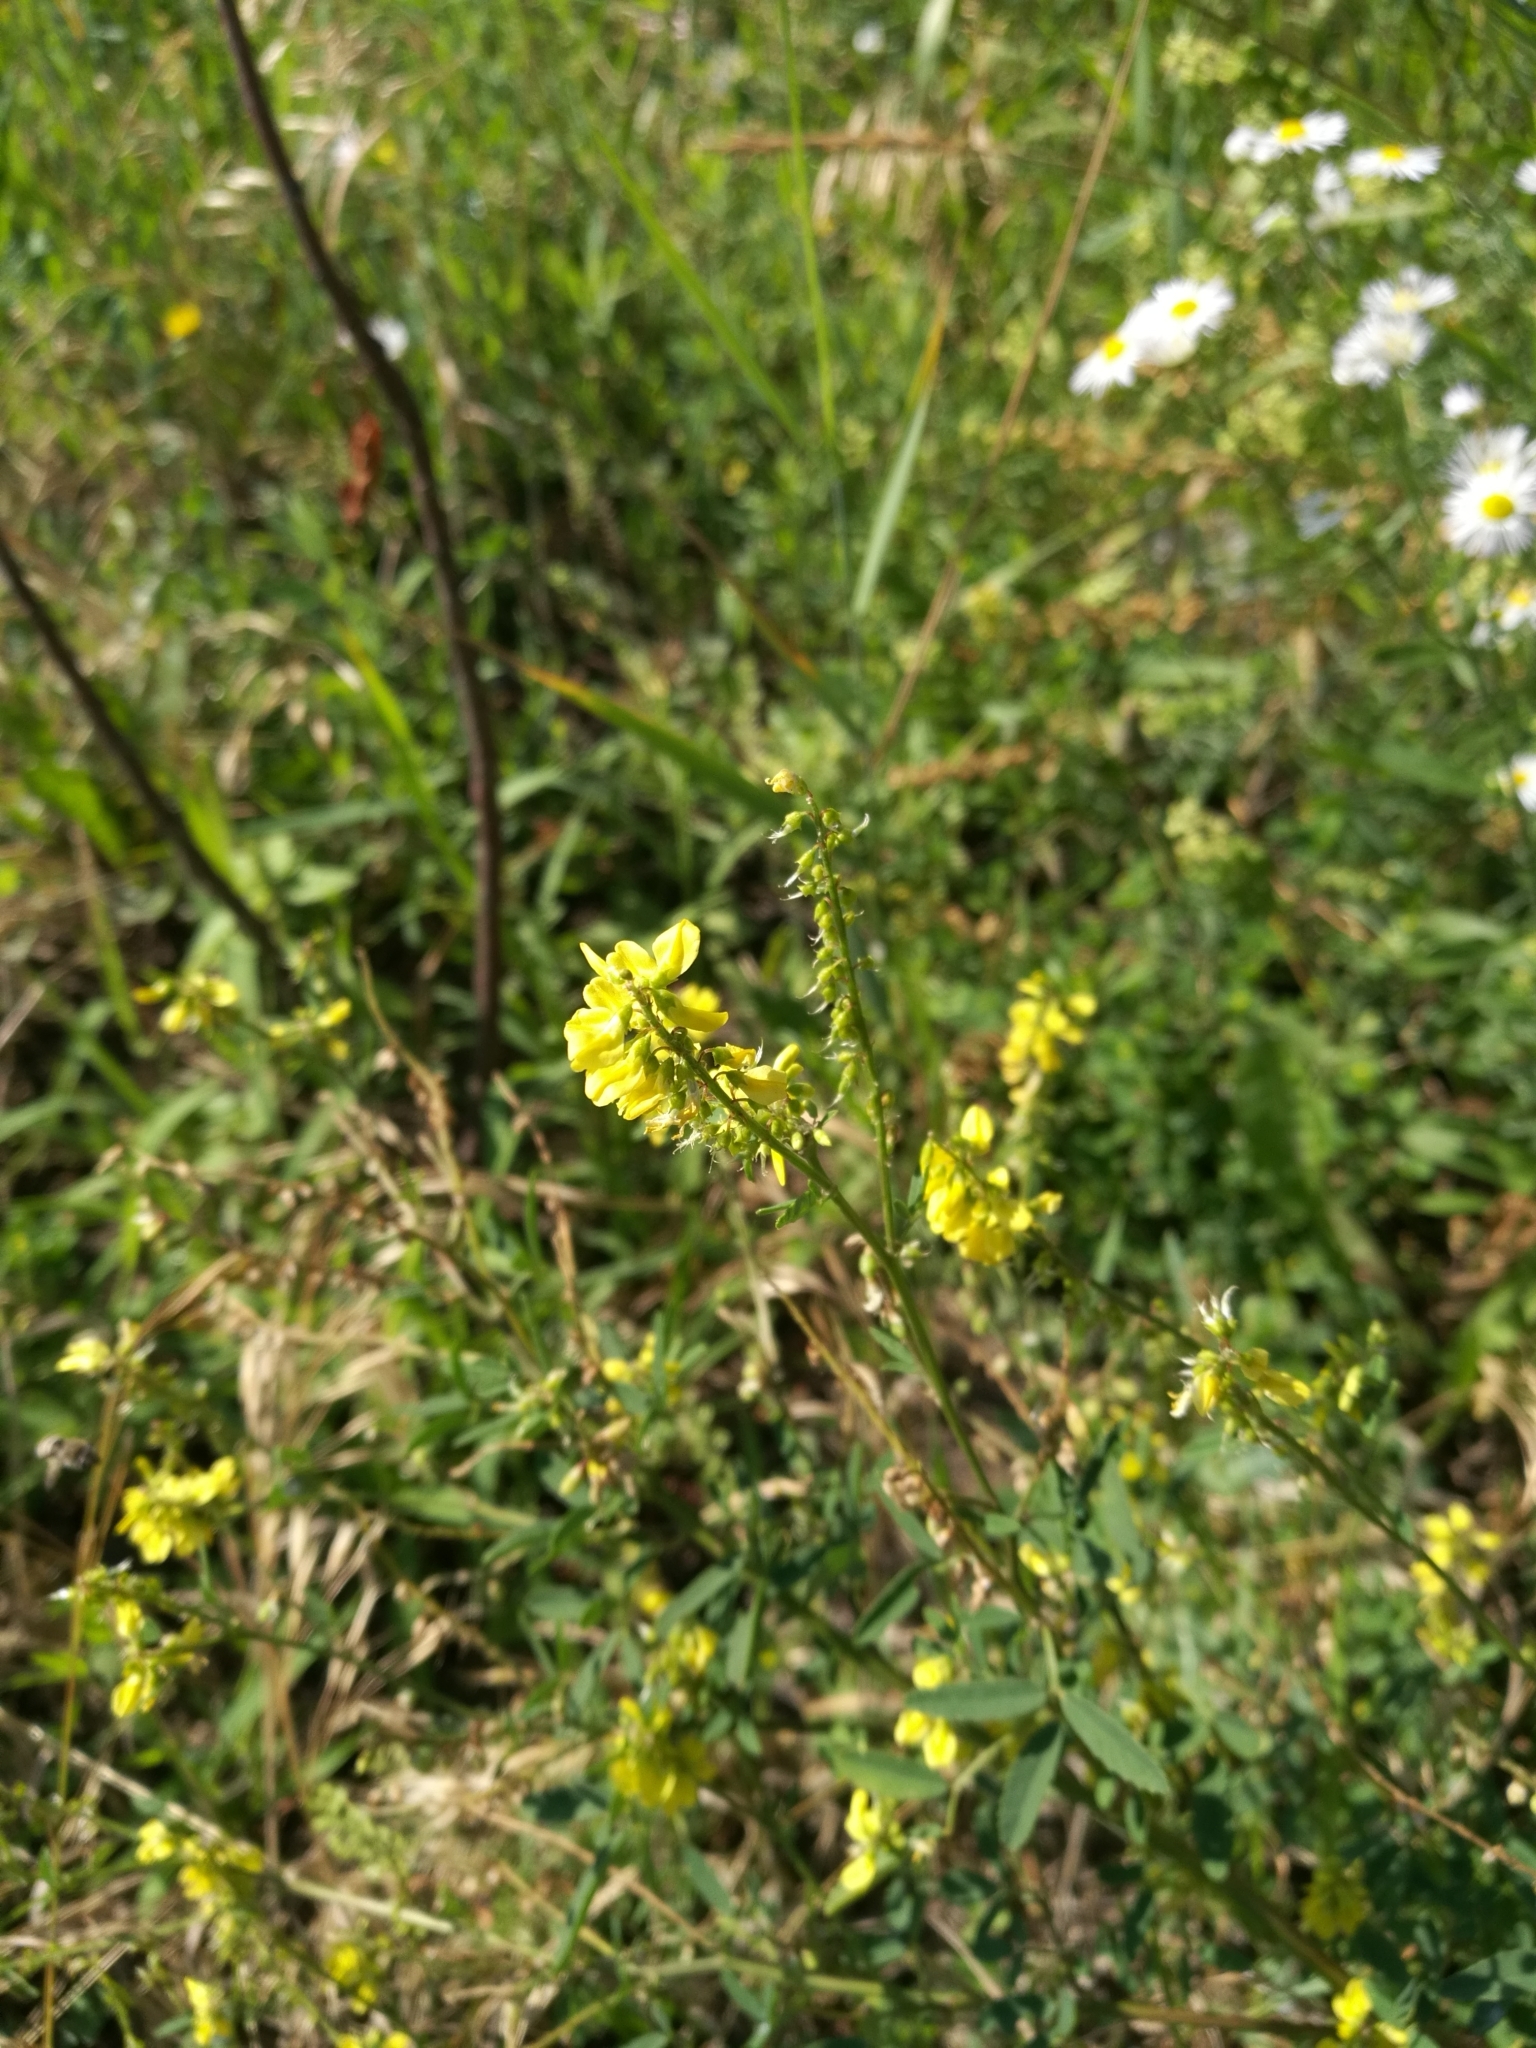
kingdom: Plantae
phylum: Tracheophyta
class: Magnoliopsida
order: Fabales
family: Fabaceae
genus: Melilotus
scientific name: Melilotus officinalis
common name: Sweetclover
